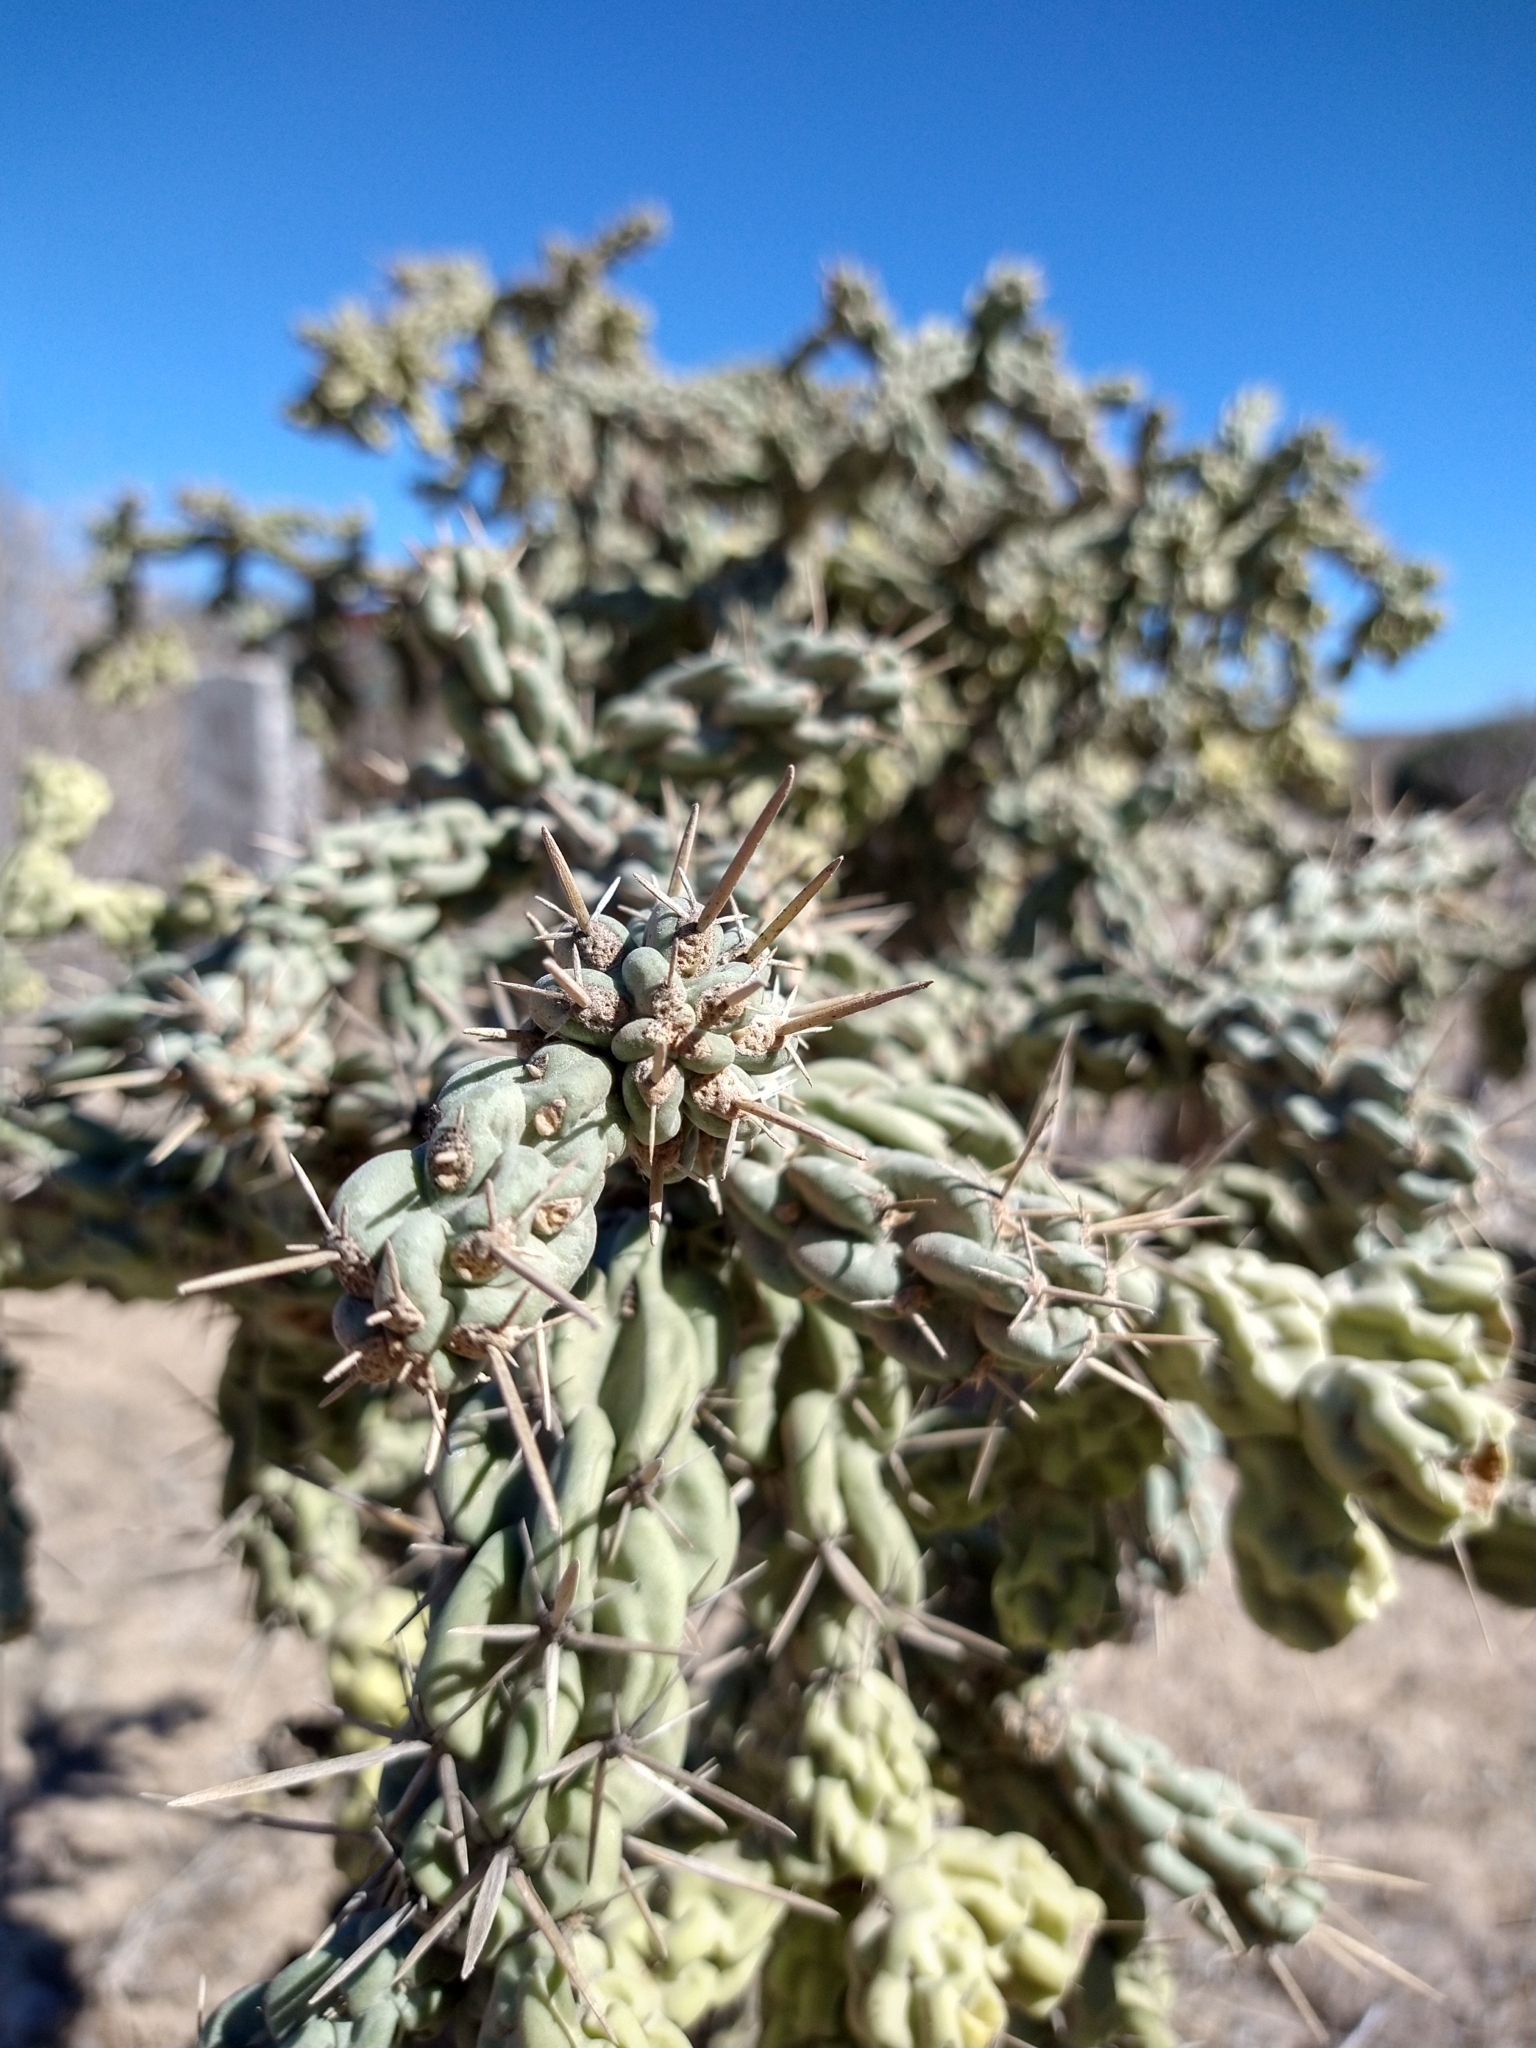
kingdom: Plantae
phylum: Tracheophyta
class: Magnoliopsida
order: Caryophyllales
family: Cactaceae
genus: Cylindropuntia
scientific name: Cylindropuntia cholla
